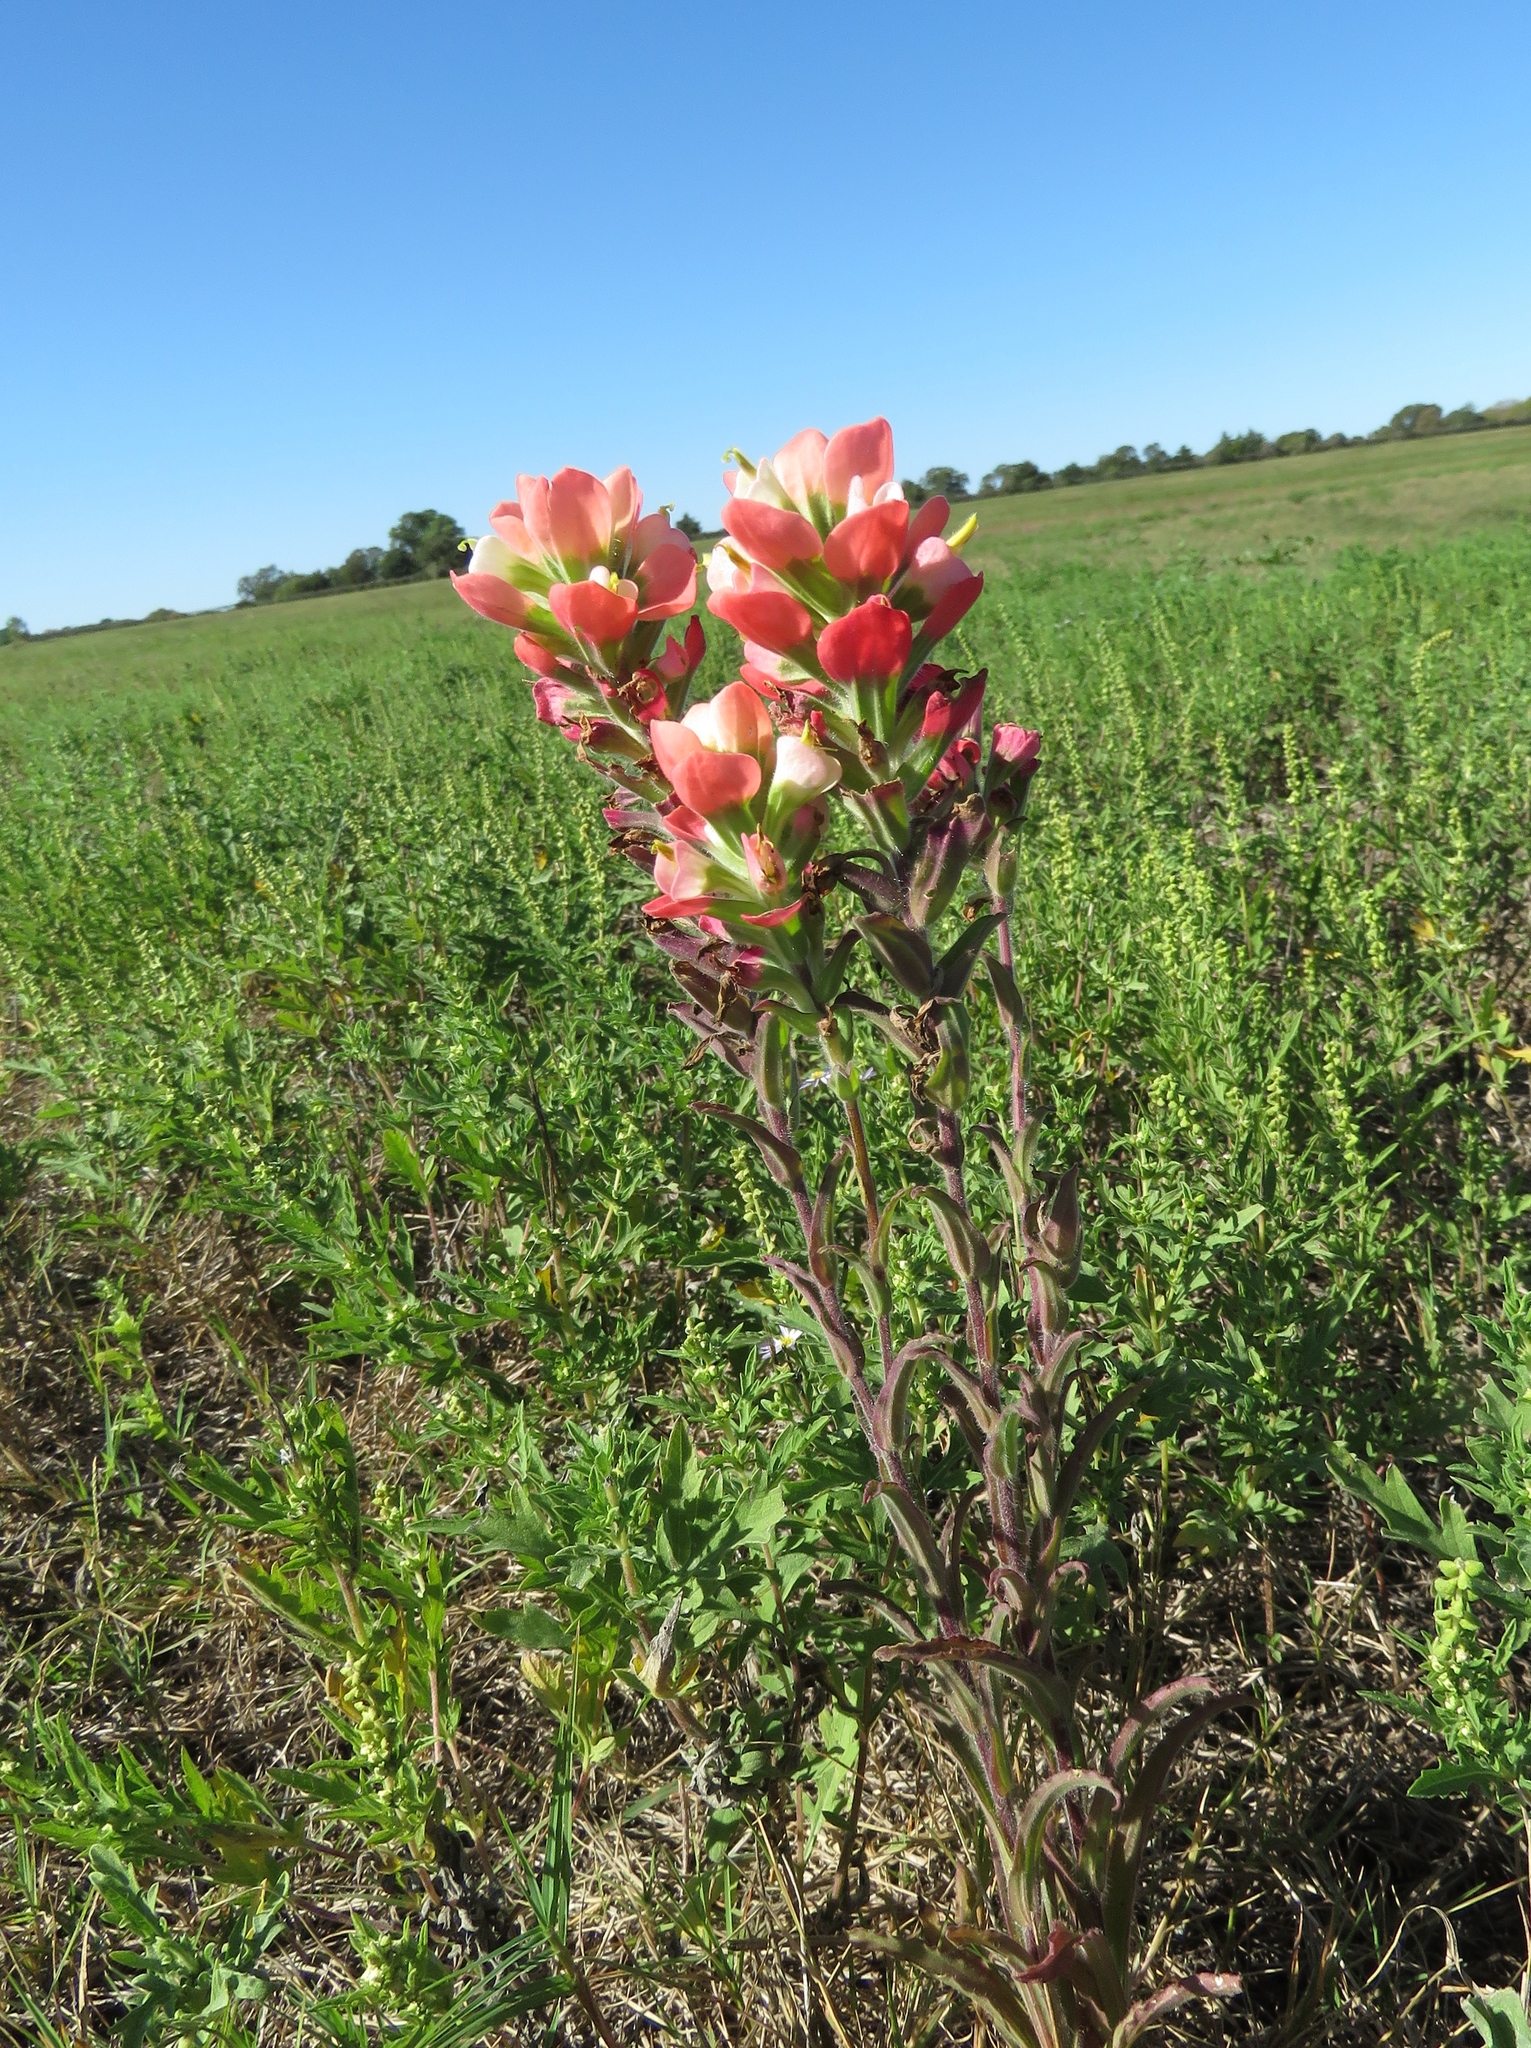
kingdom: Plantae
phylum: Tracheophyta
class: Magnoliopsida
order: Lamiales
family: Orobanchaceae
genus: Castilleja
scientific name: Castilleja indivisa
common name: Texas paintbrush
